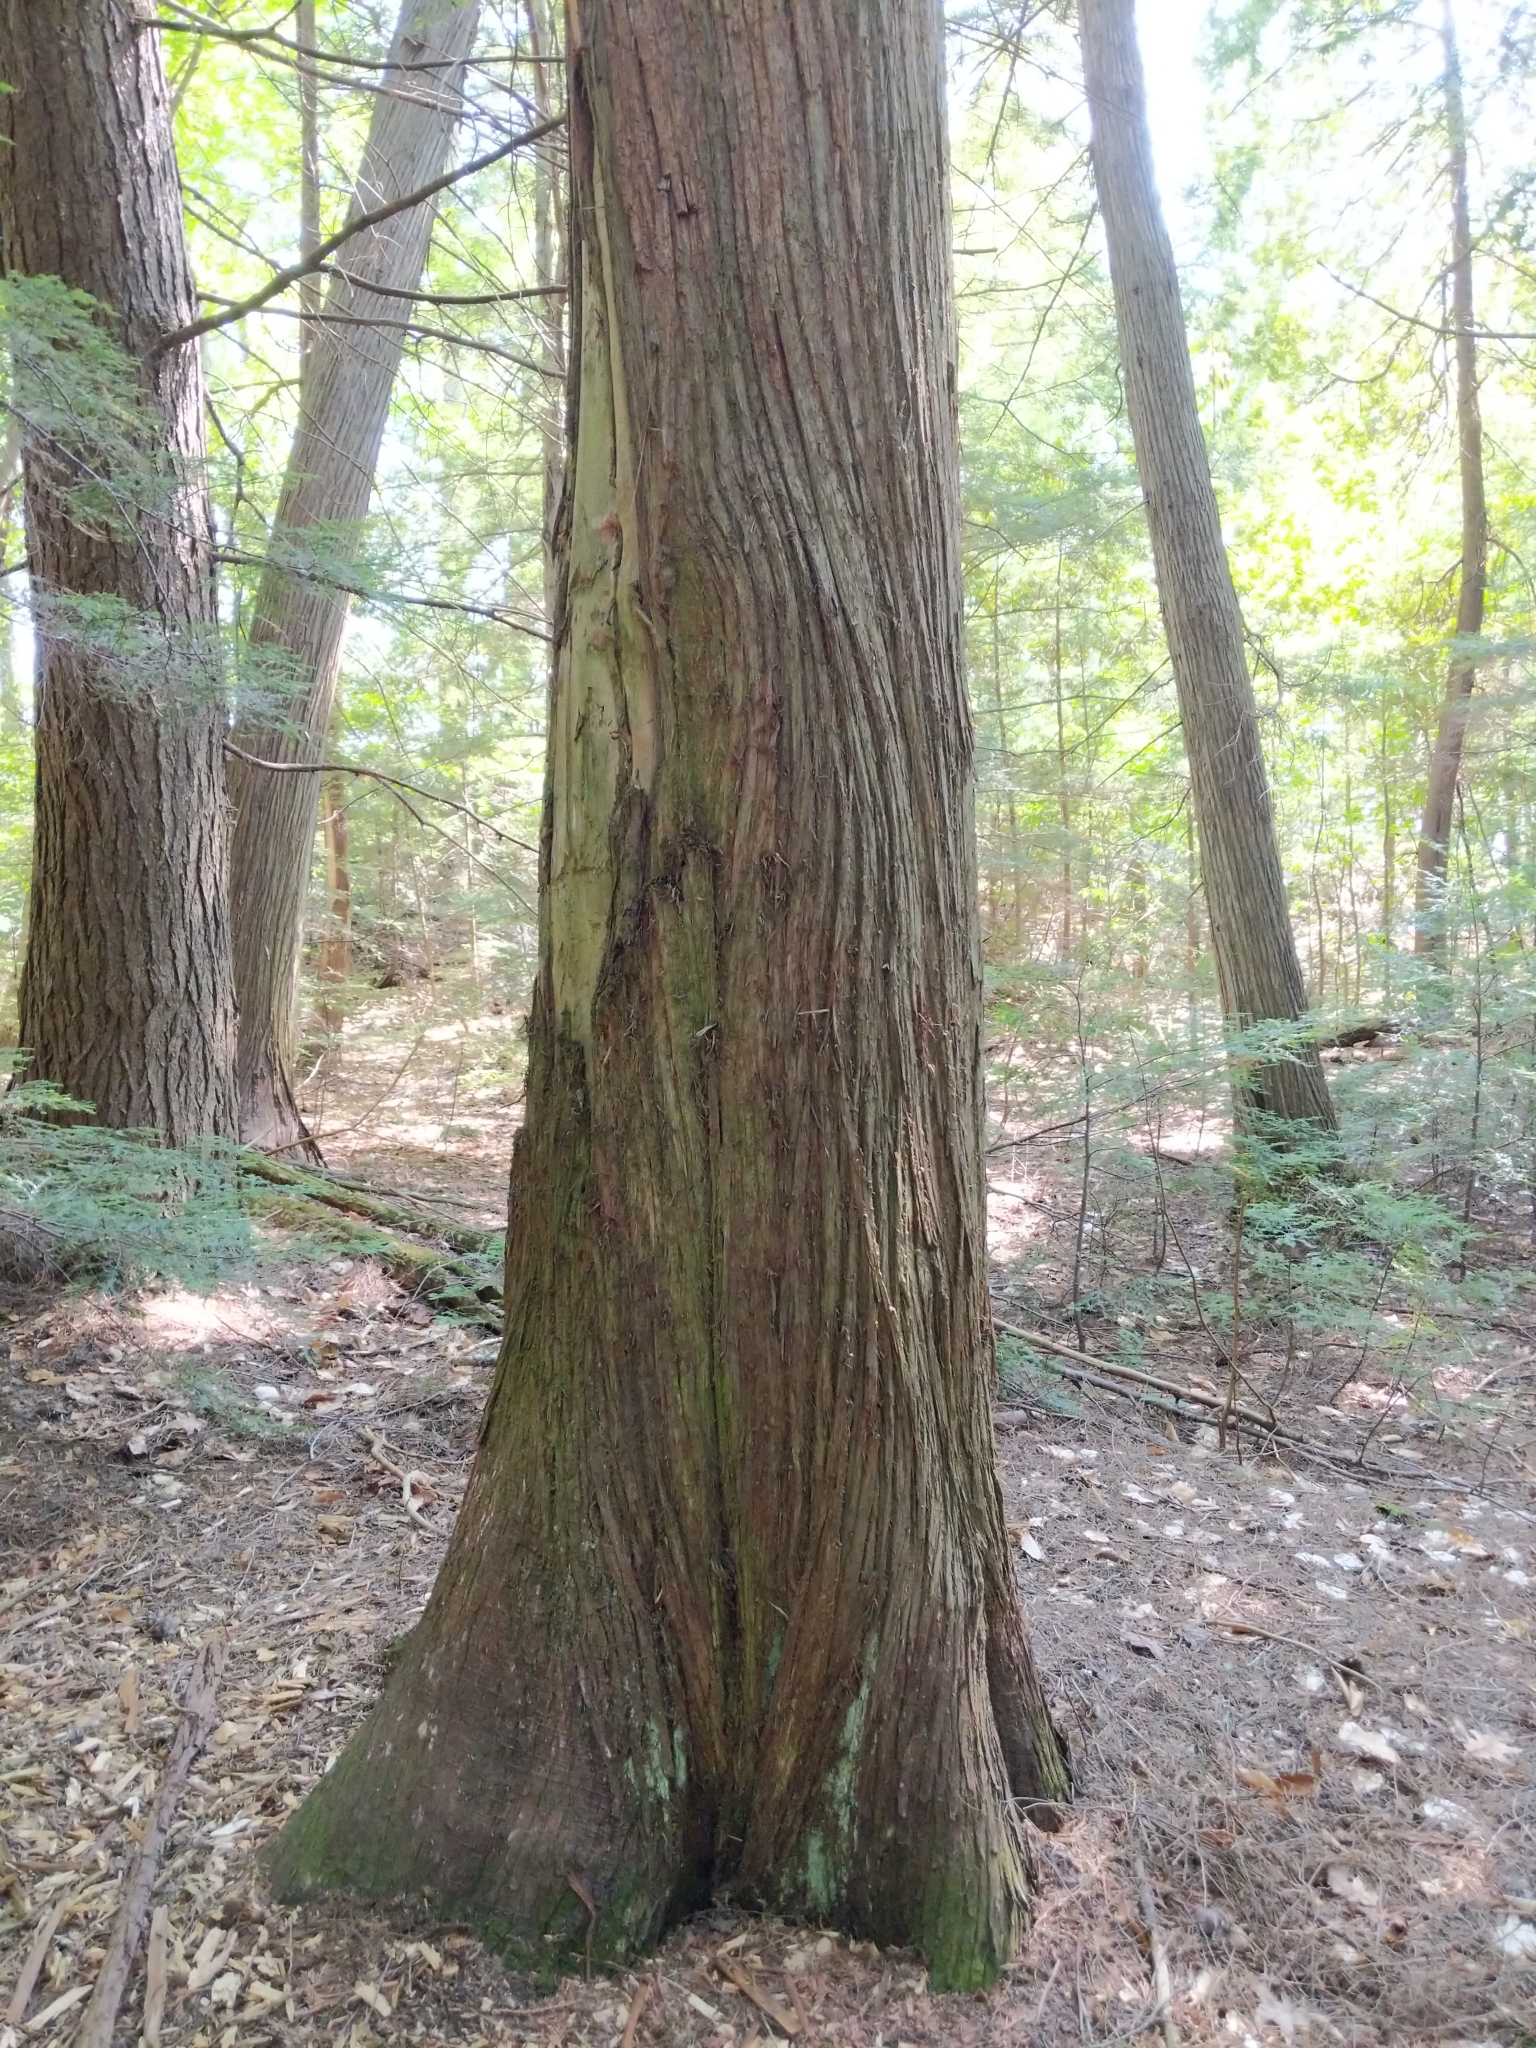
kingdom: Plantae
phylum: Tracheophyta
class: Pinopsida
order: Pinales
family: Cupressaceae
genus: Thuja
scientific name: Thuja occidentalis
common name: Northern white-cedar
